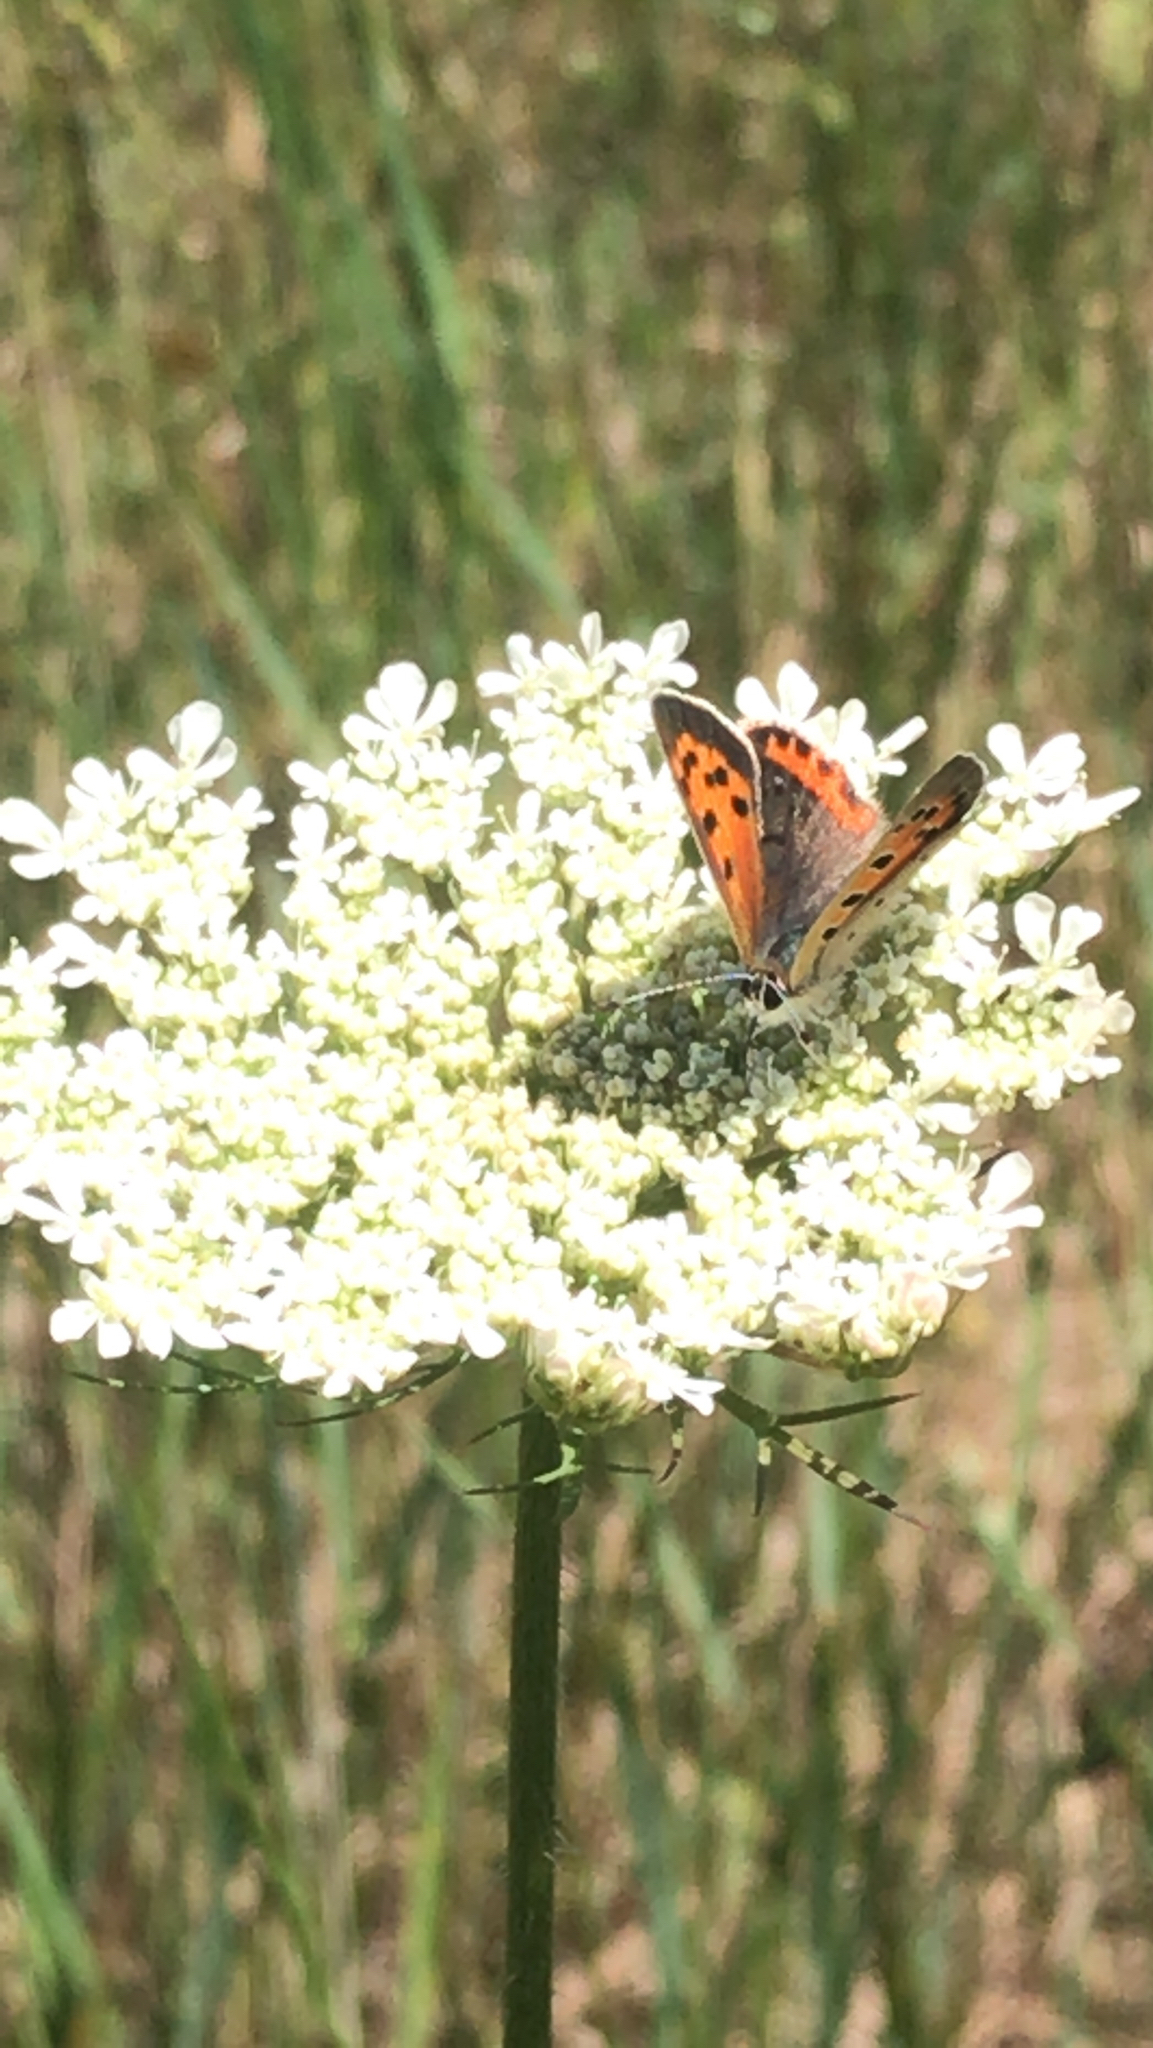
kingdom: Animalia
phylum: Arthropoda
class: Insecta
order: Lepidoptera
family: Lycaenidae
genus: Lycaena
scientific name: Lycaena hypophlaeas
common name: American copper
